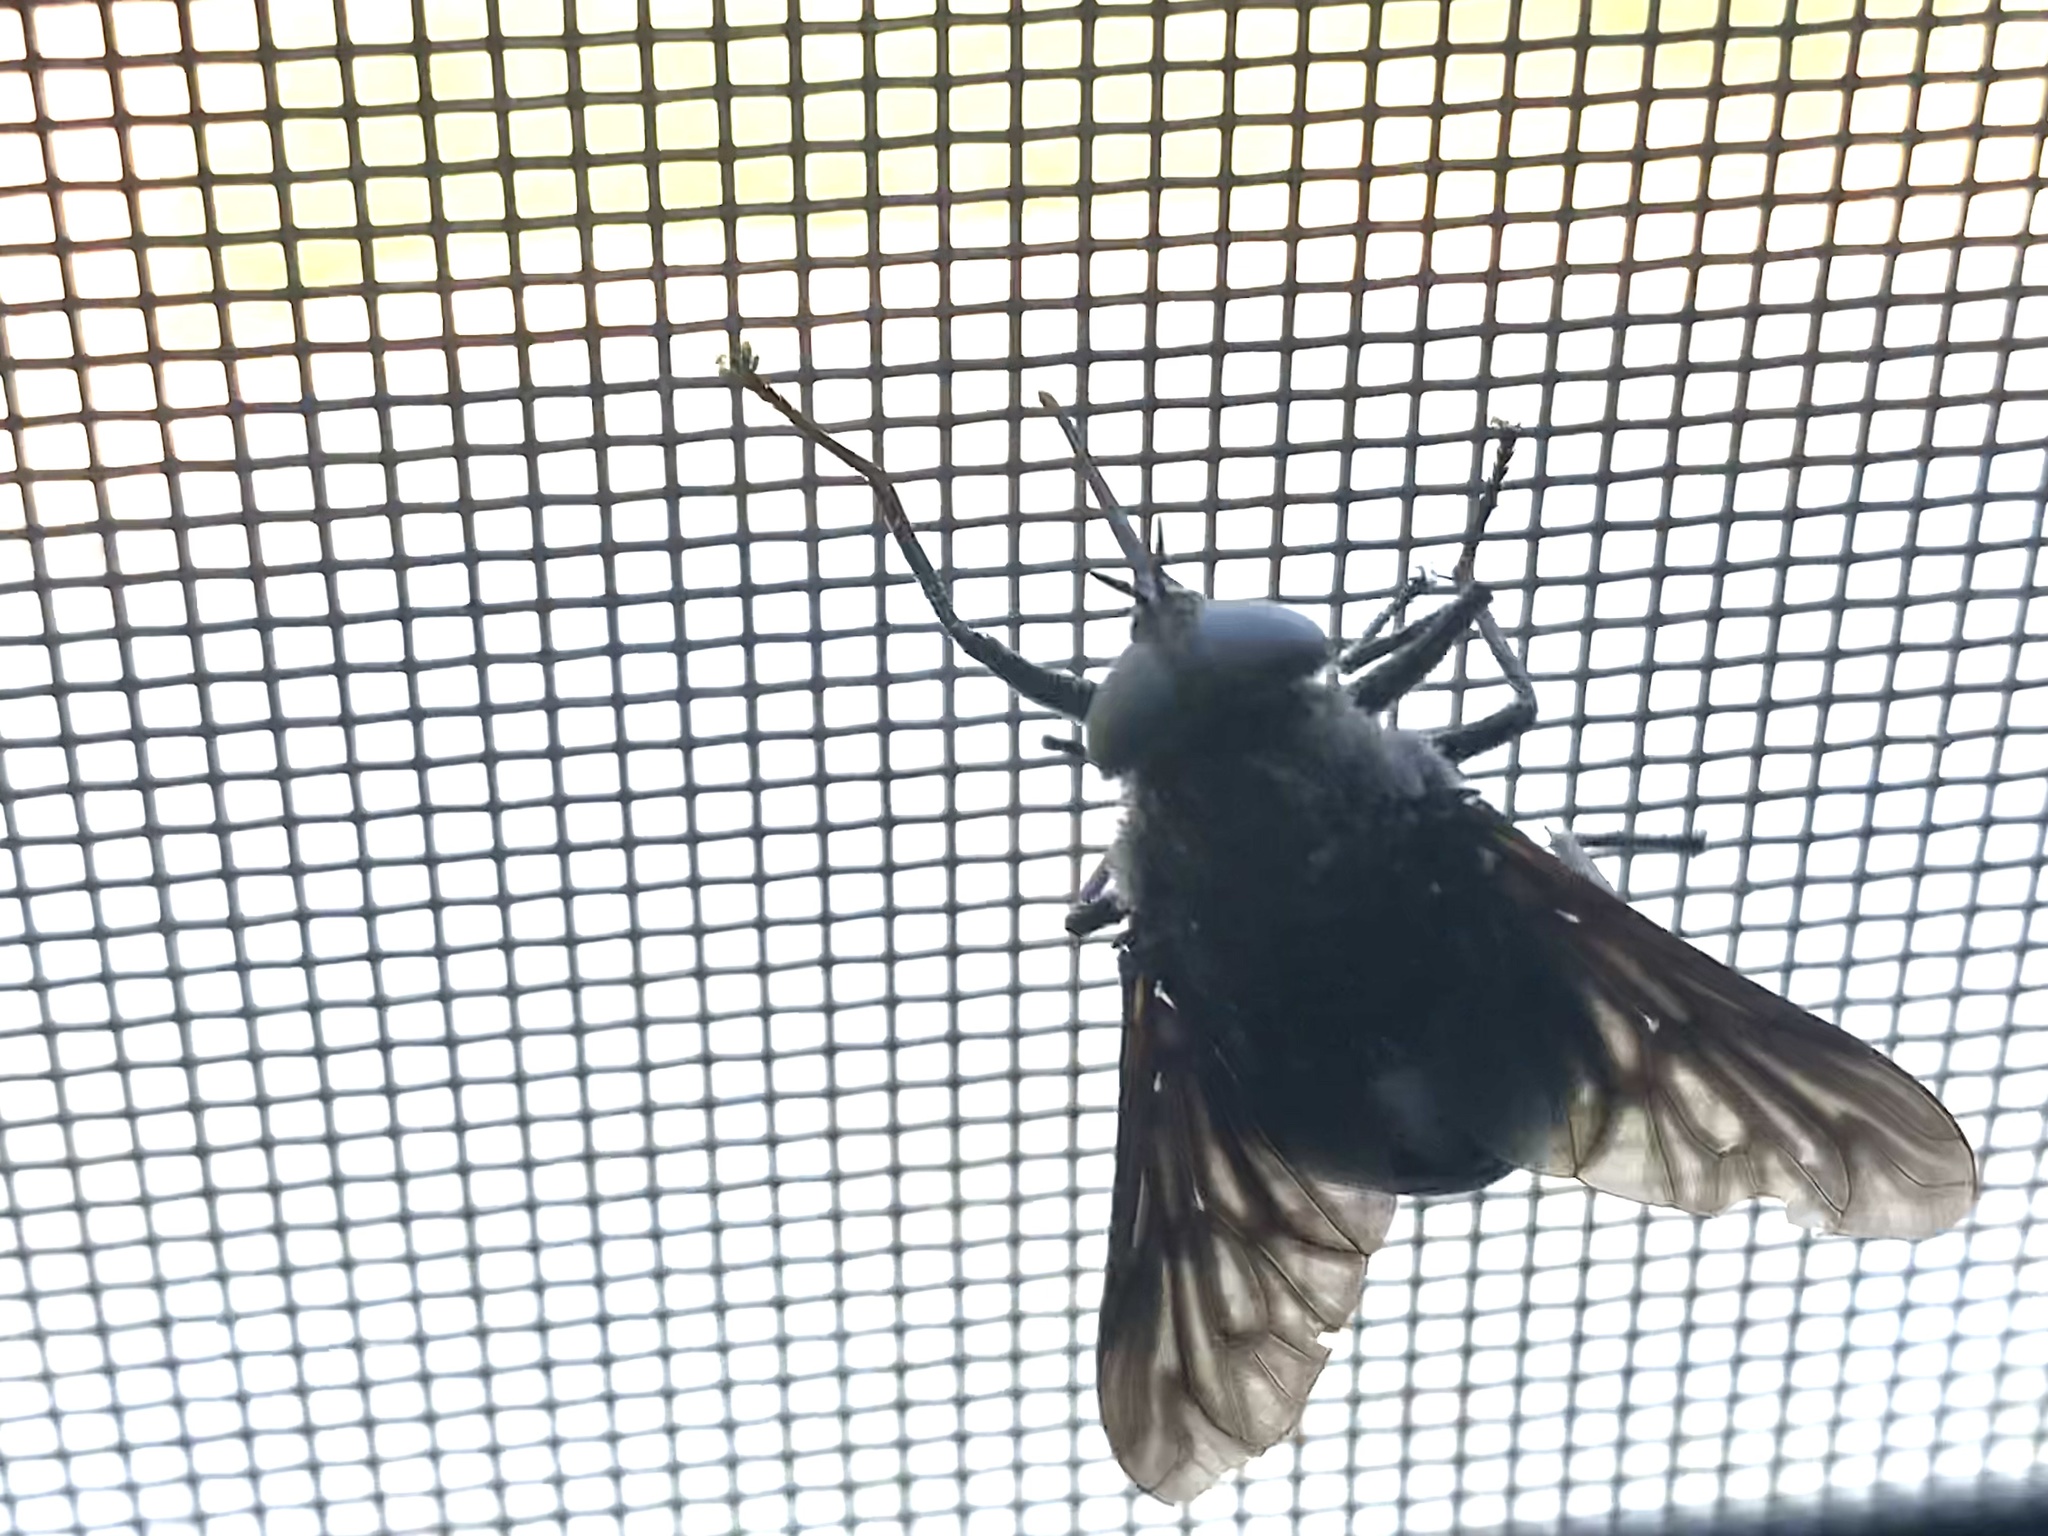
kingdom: Animalia
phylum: Arthropoda
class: Insecta
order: Diptera
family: Tabanidae
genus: Pangonius
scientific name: Pangonius funebris
